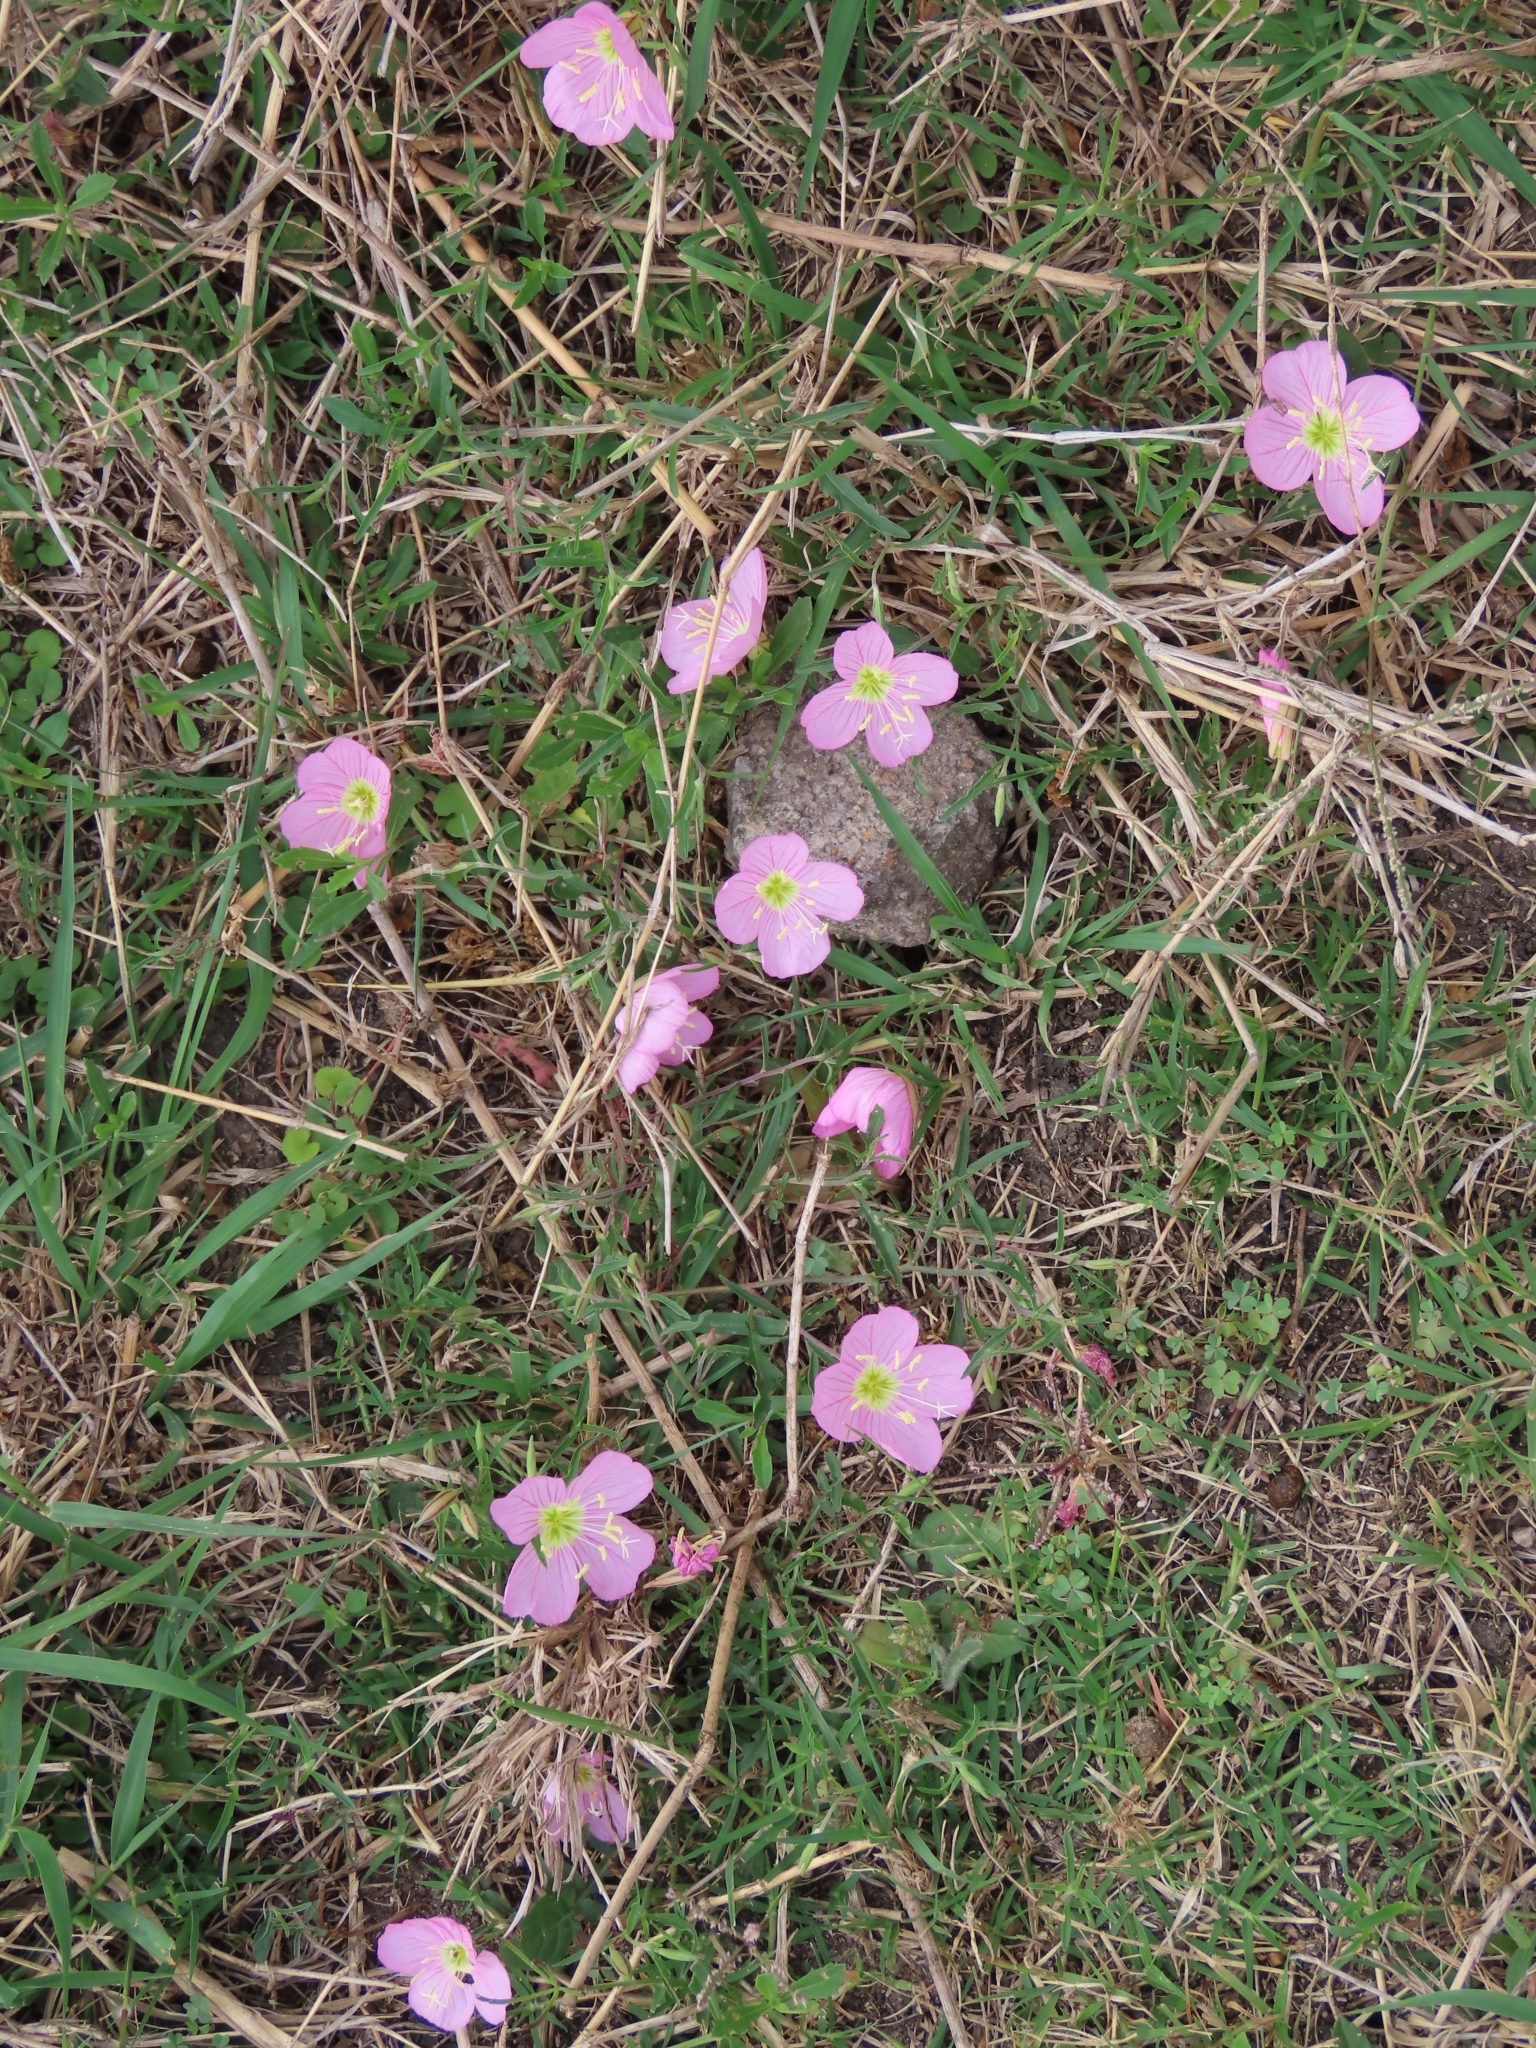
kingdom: Plantae
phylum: Tracheophyta
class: Magnoliopsida
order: Myrtales
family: Onagraceae
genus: Oenothera
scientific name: Oenothera speciosa
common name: White evening-primrose
